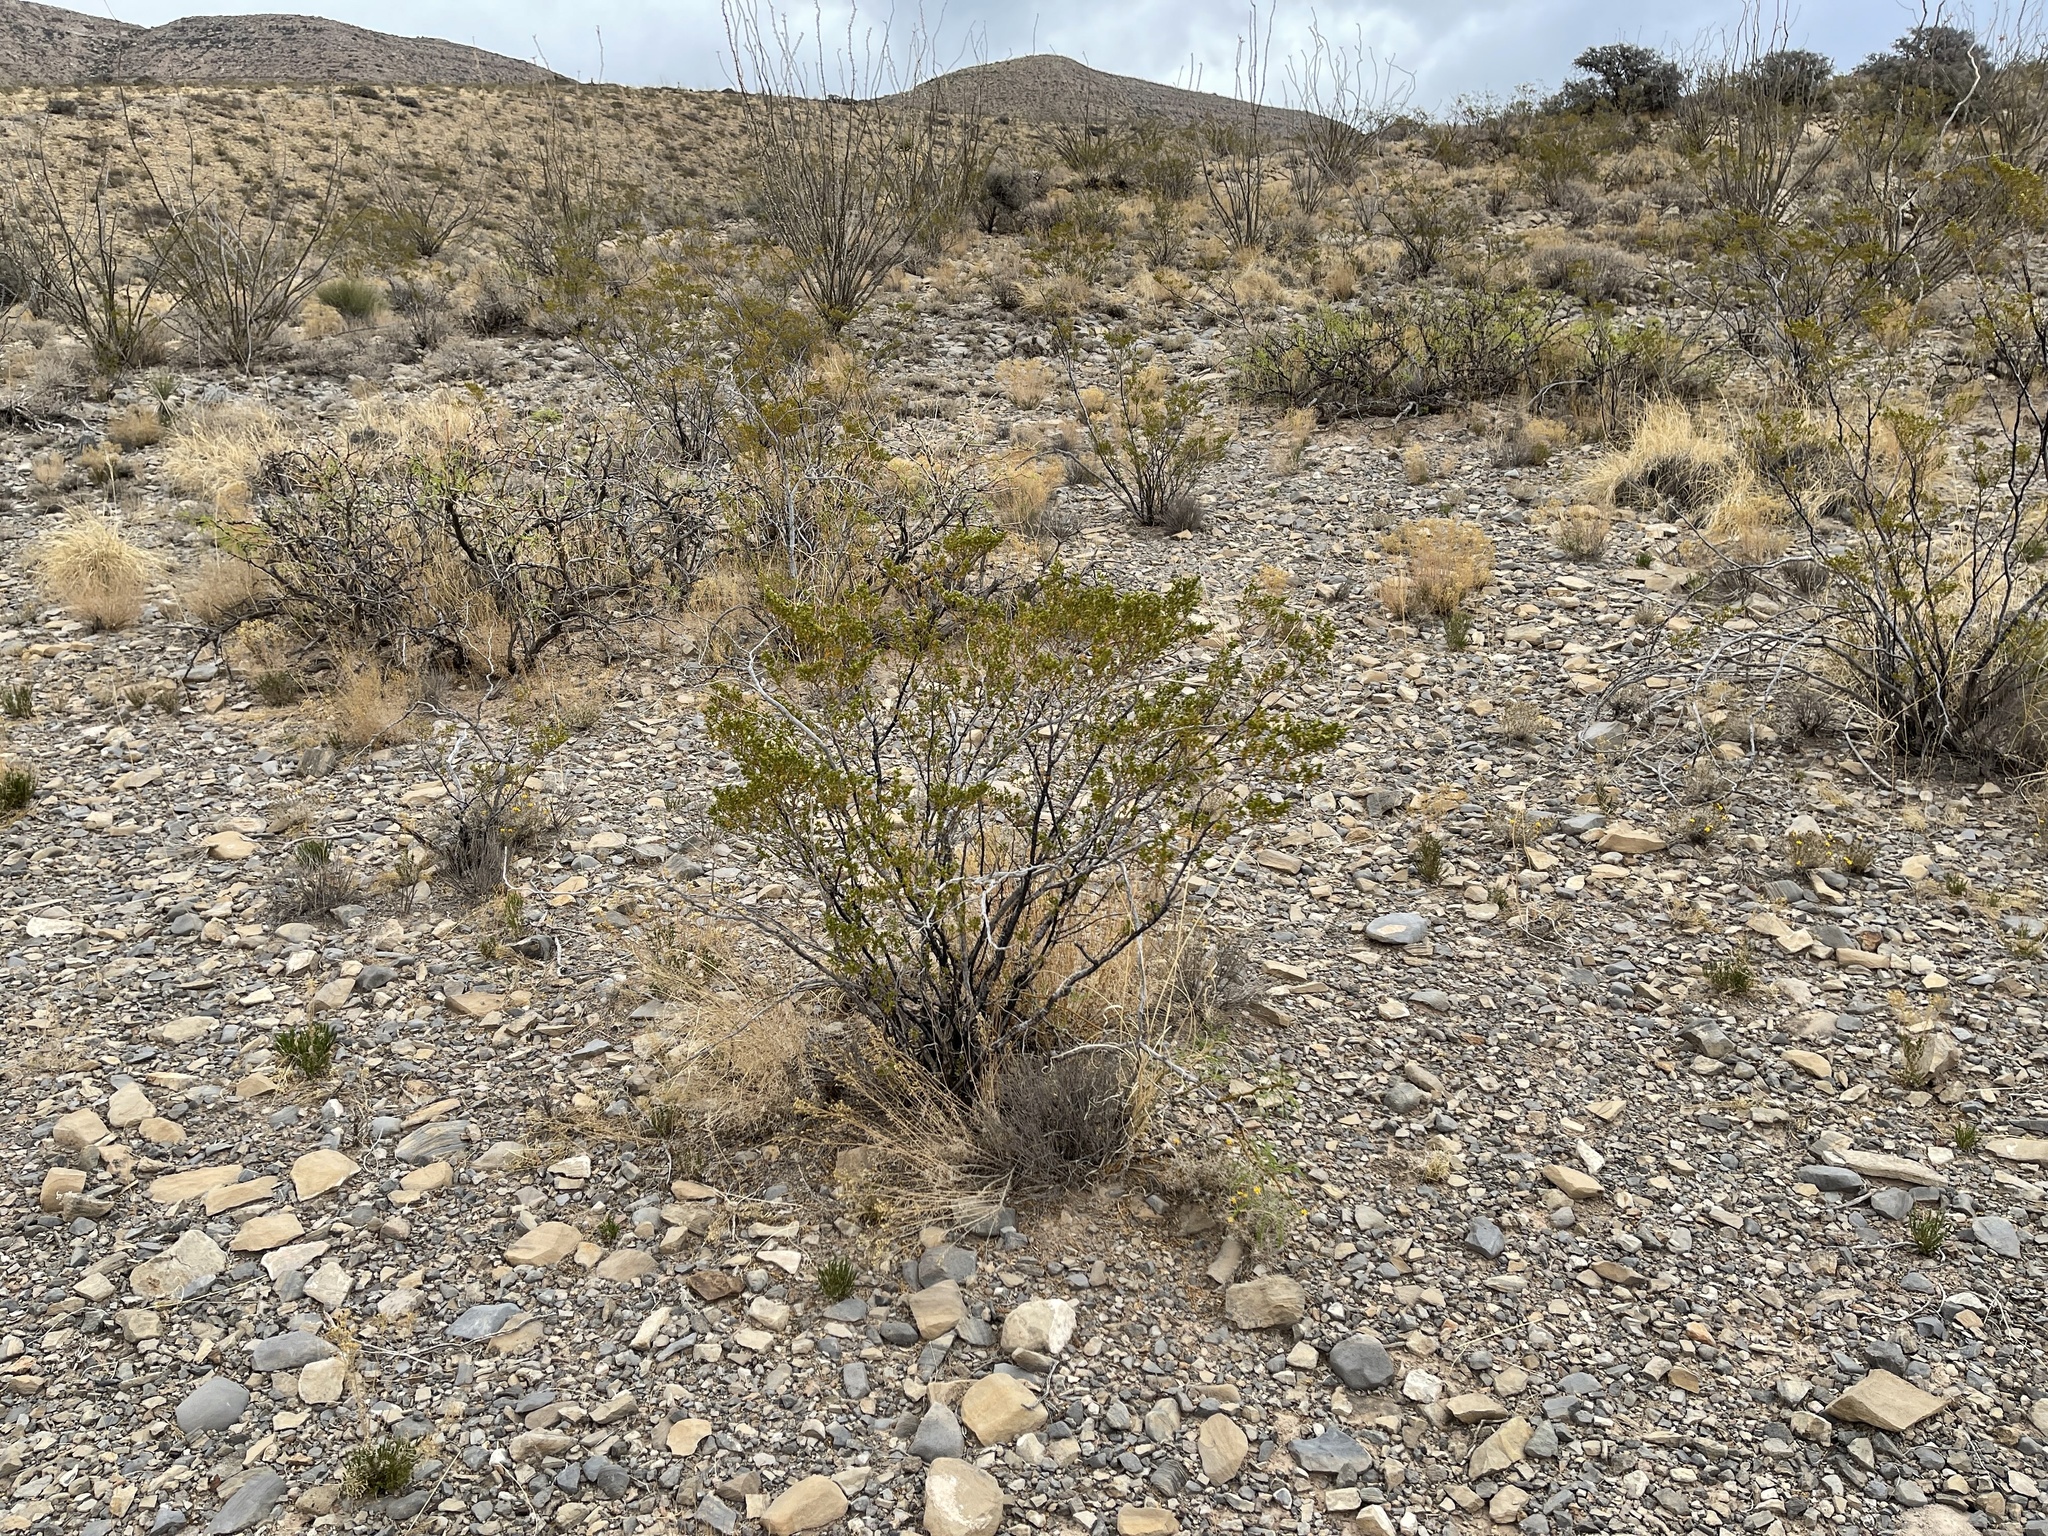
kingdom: Plantae
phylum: Tracheophyta
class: Magnoliopsida
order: Zygophyllales
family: Zygophyllaceae
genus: Larrea
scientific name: Larrea tridentata
